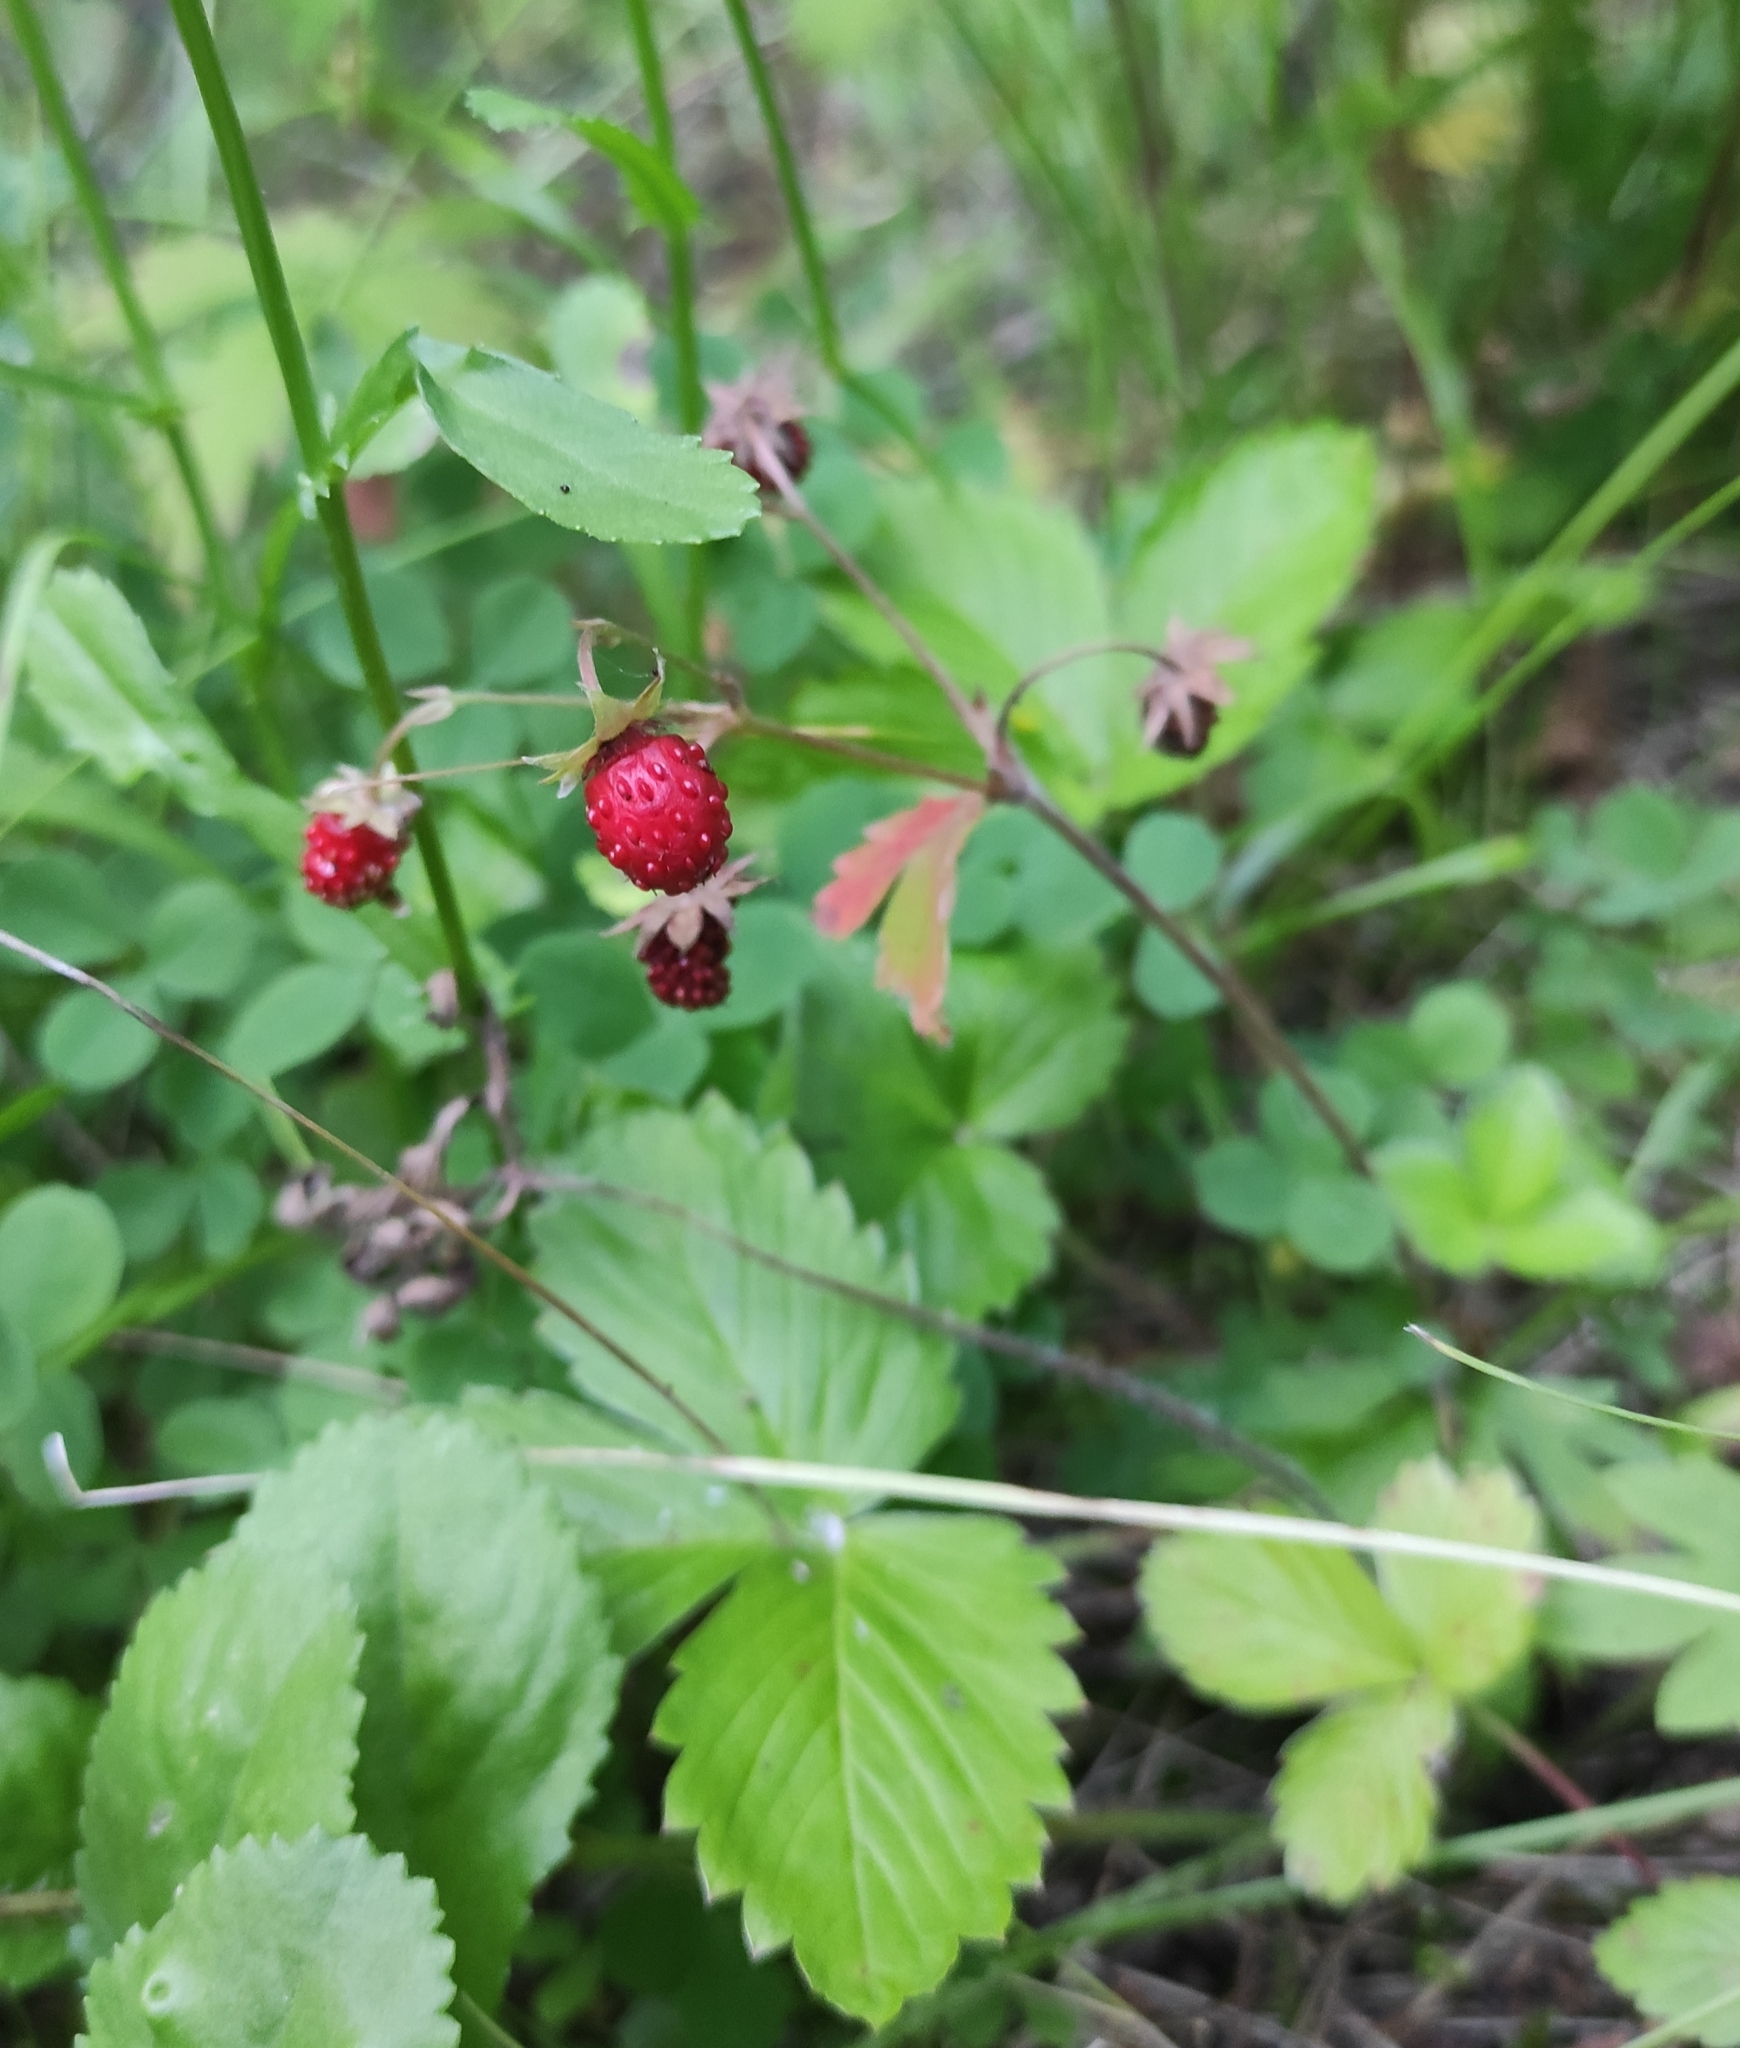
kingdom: Plantae
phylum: Tracheophyta
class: Magnoliopsida
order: Rosales
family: Rosaceae
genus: Fragaria
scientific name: Fragaria vesca
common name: Wild strawberry
